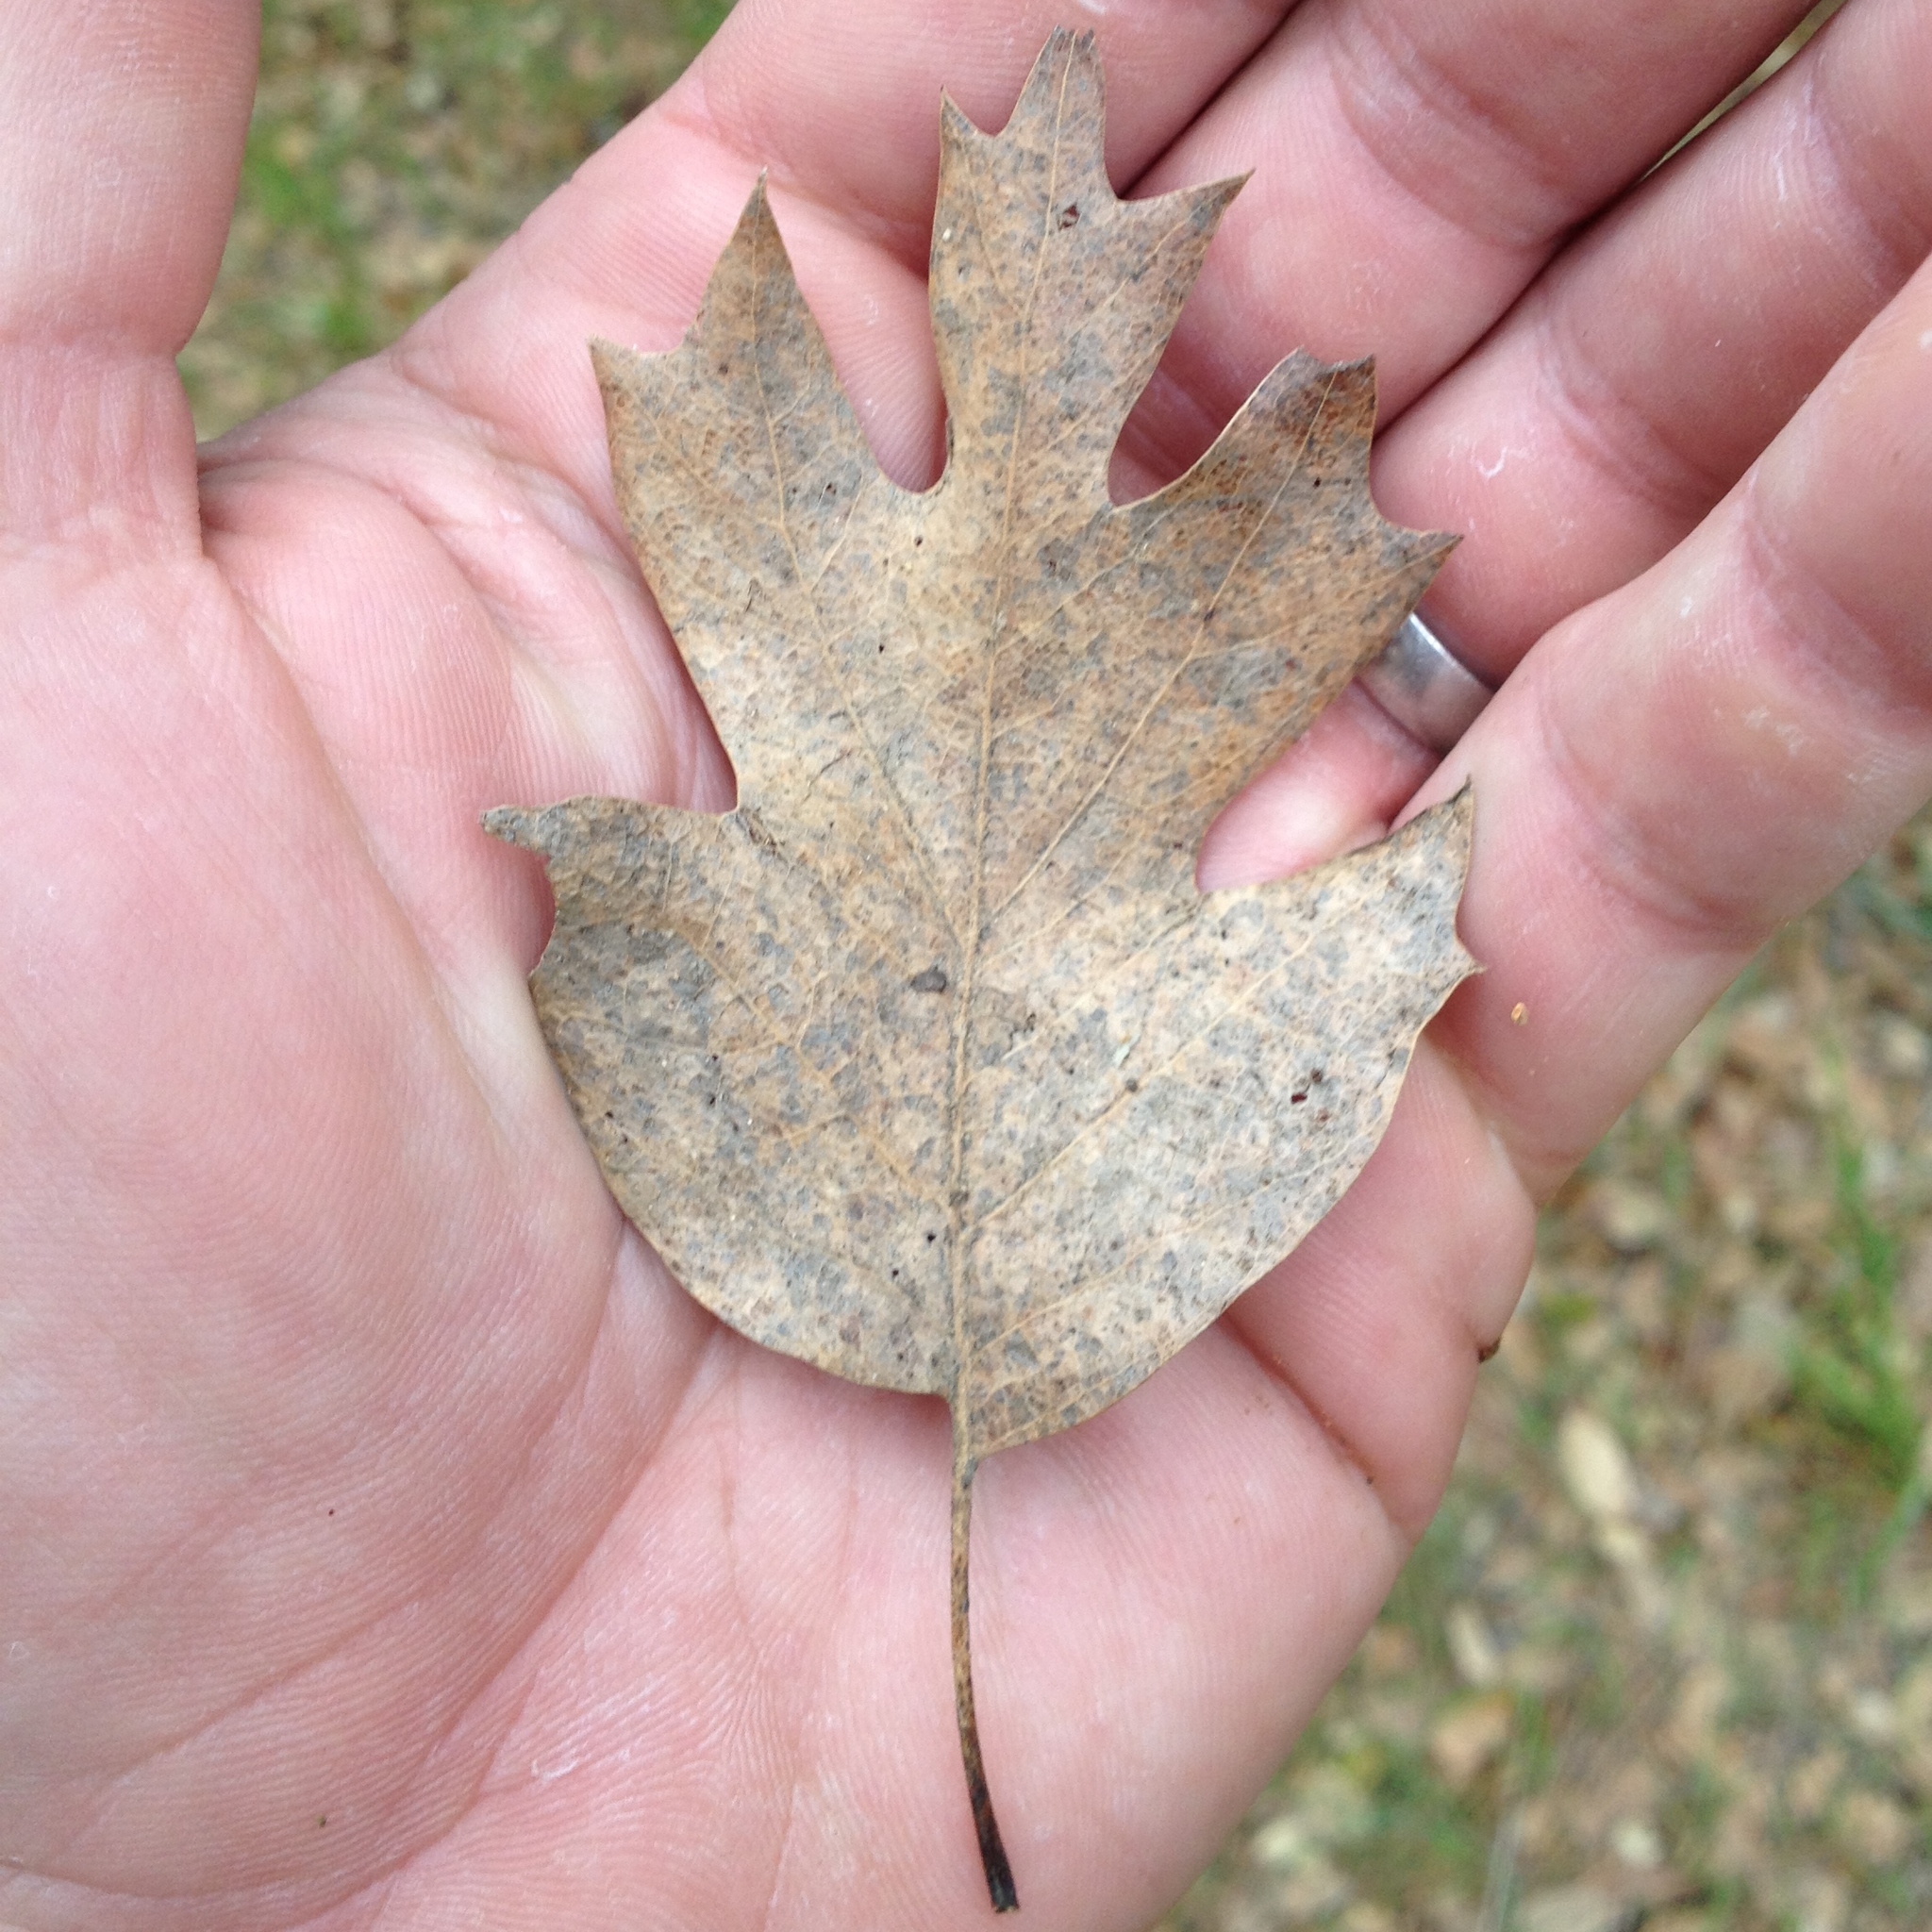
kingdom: Plantae
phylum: Tracheophyta
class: Magnoliopsida
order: Fagales
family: Fagaceae
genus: Quercus
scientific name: Quercus kelloggii
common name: California black oak
